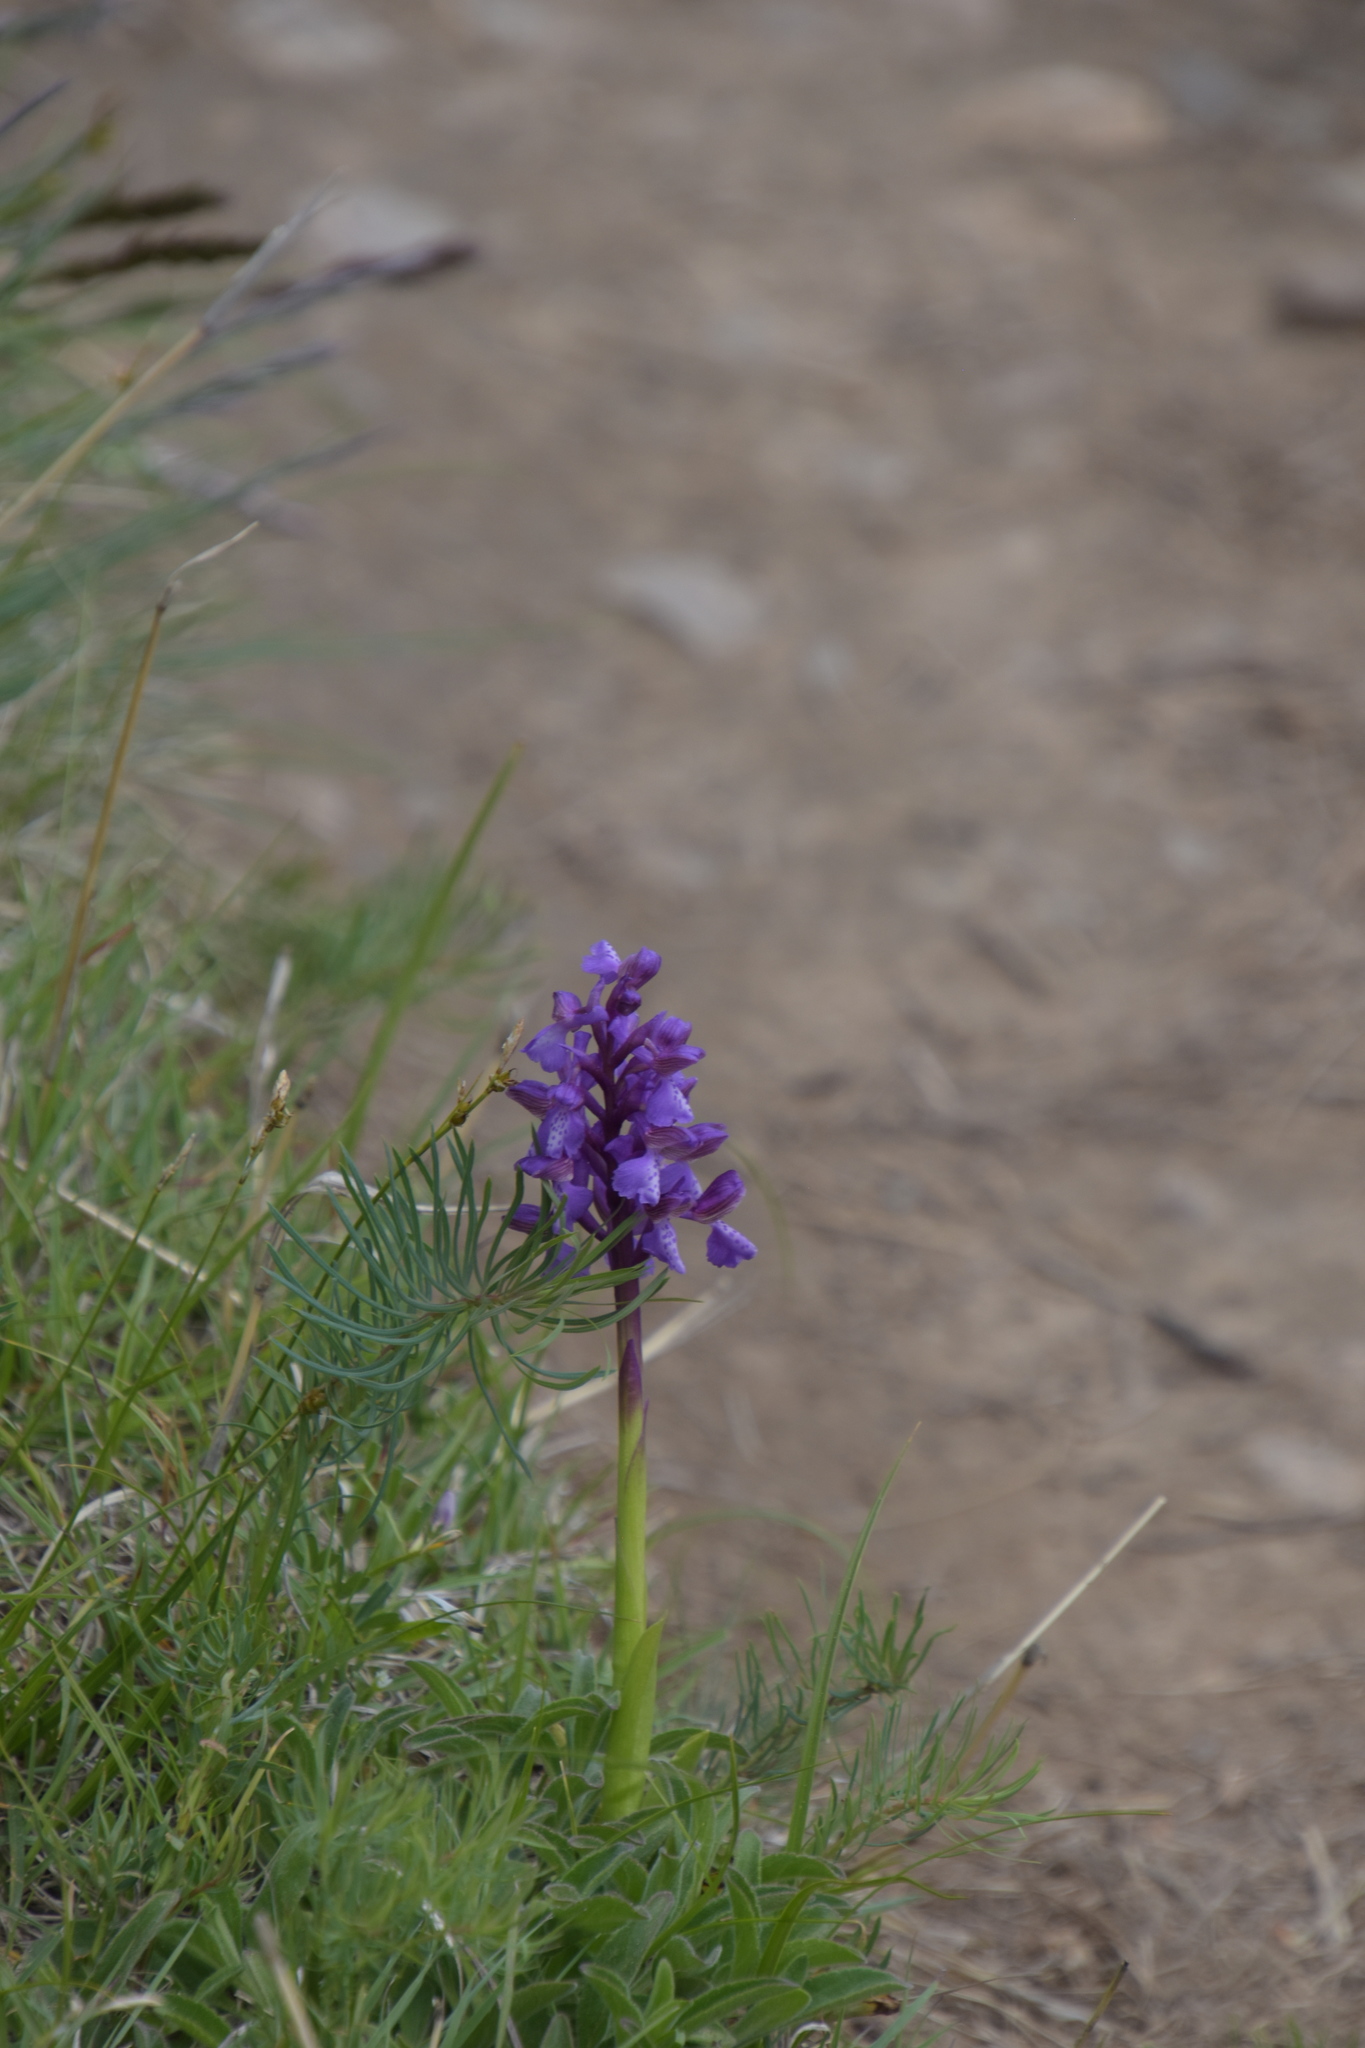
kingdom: Plantae
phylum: Tracheophyta
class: Liliopsida
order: Asparagales
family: Orchidaceae
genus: Anacamptis
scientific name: Anacamptis morio
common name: Green-winged orchid
